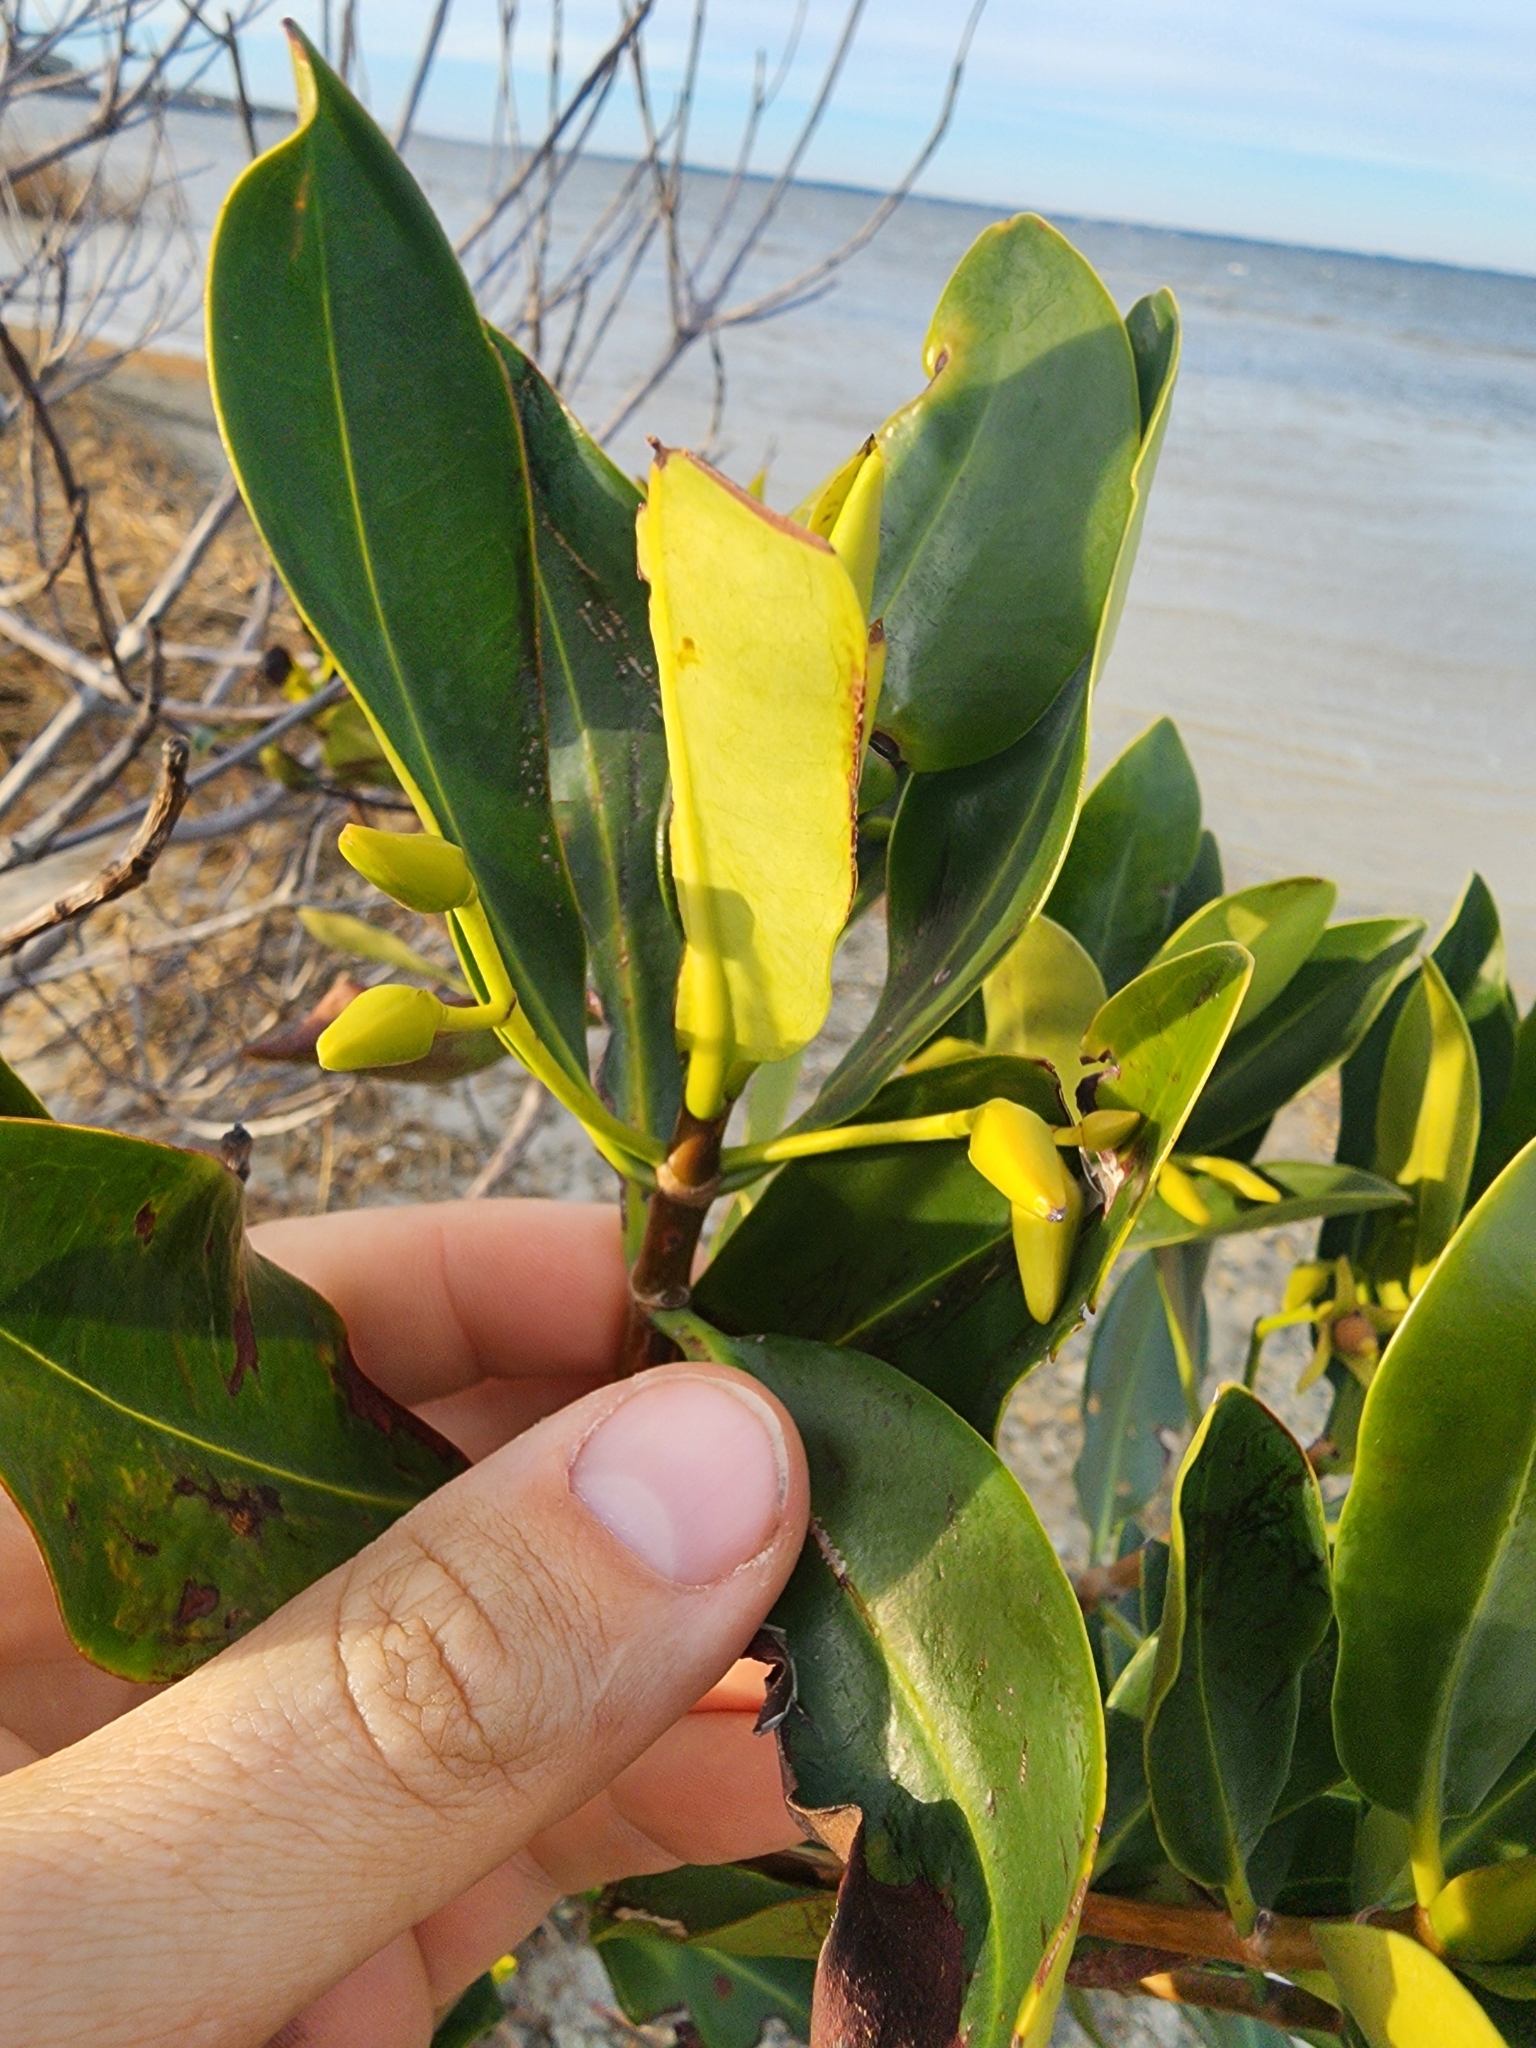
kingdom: Plantae
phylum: Tracheophyta
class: Magnoliopsida
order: Malpighiales
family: Rhizophoraceae
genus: Rhizophora
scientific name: Rhizophora mangle
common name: Red mangrove
